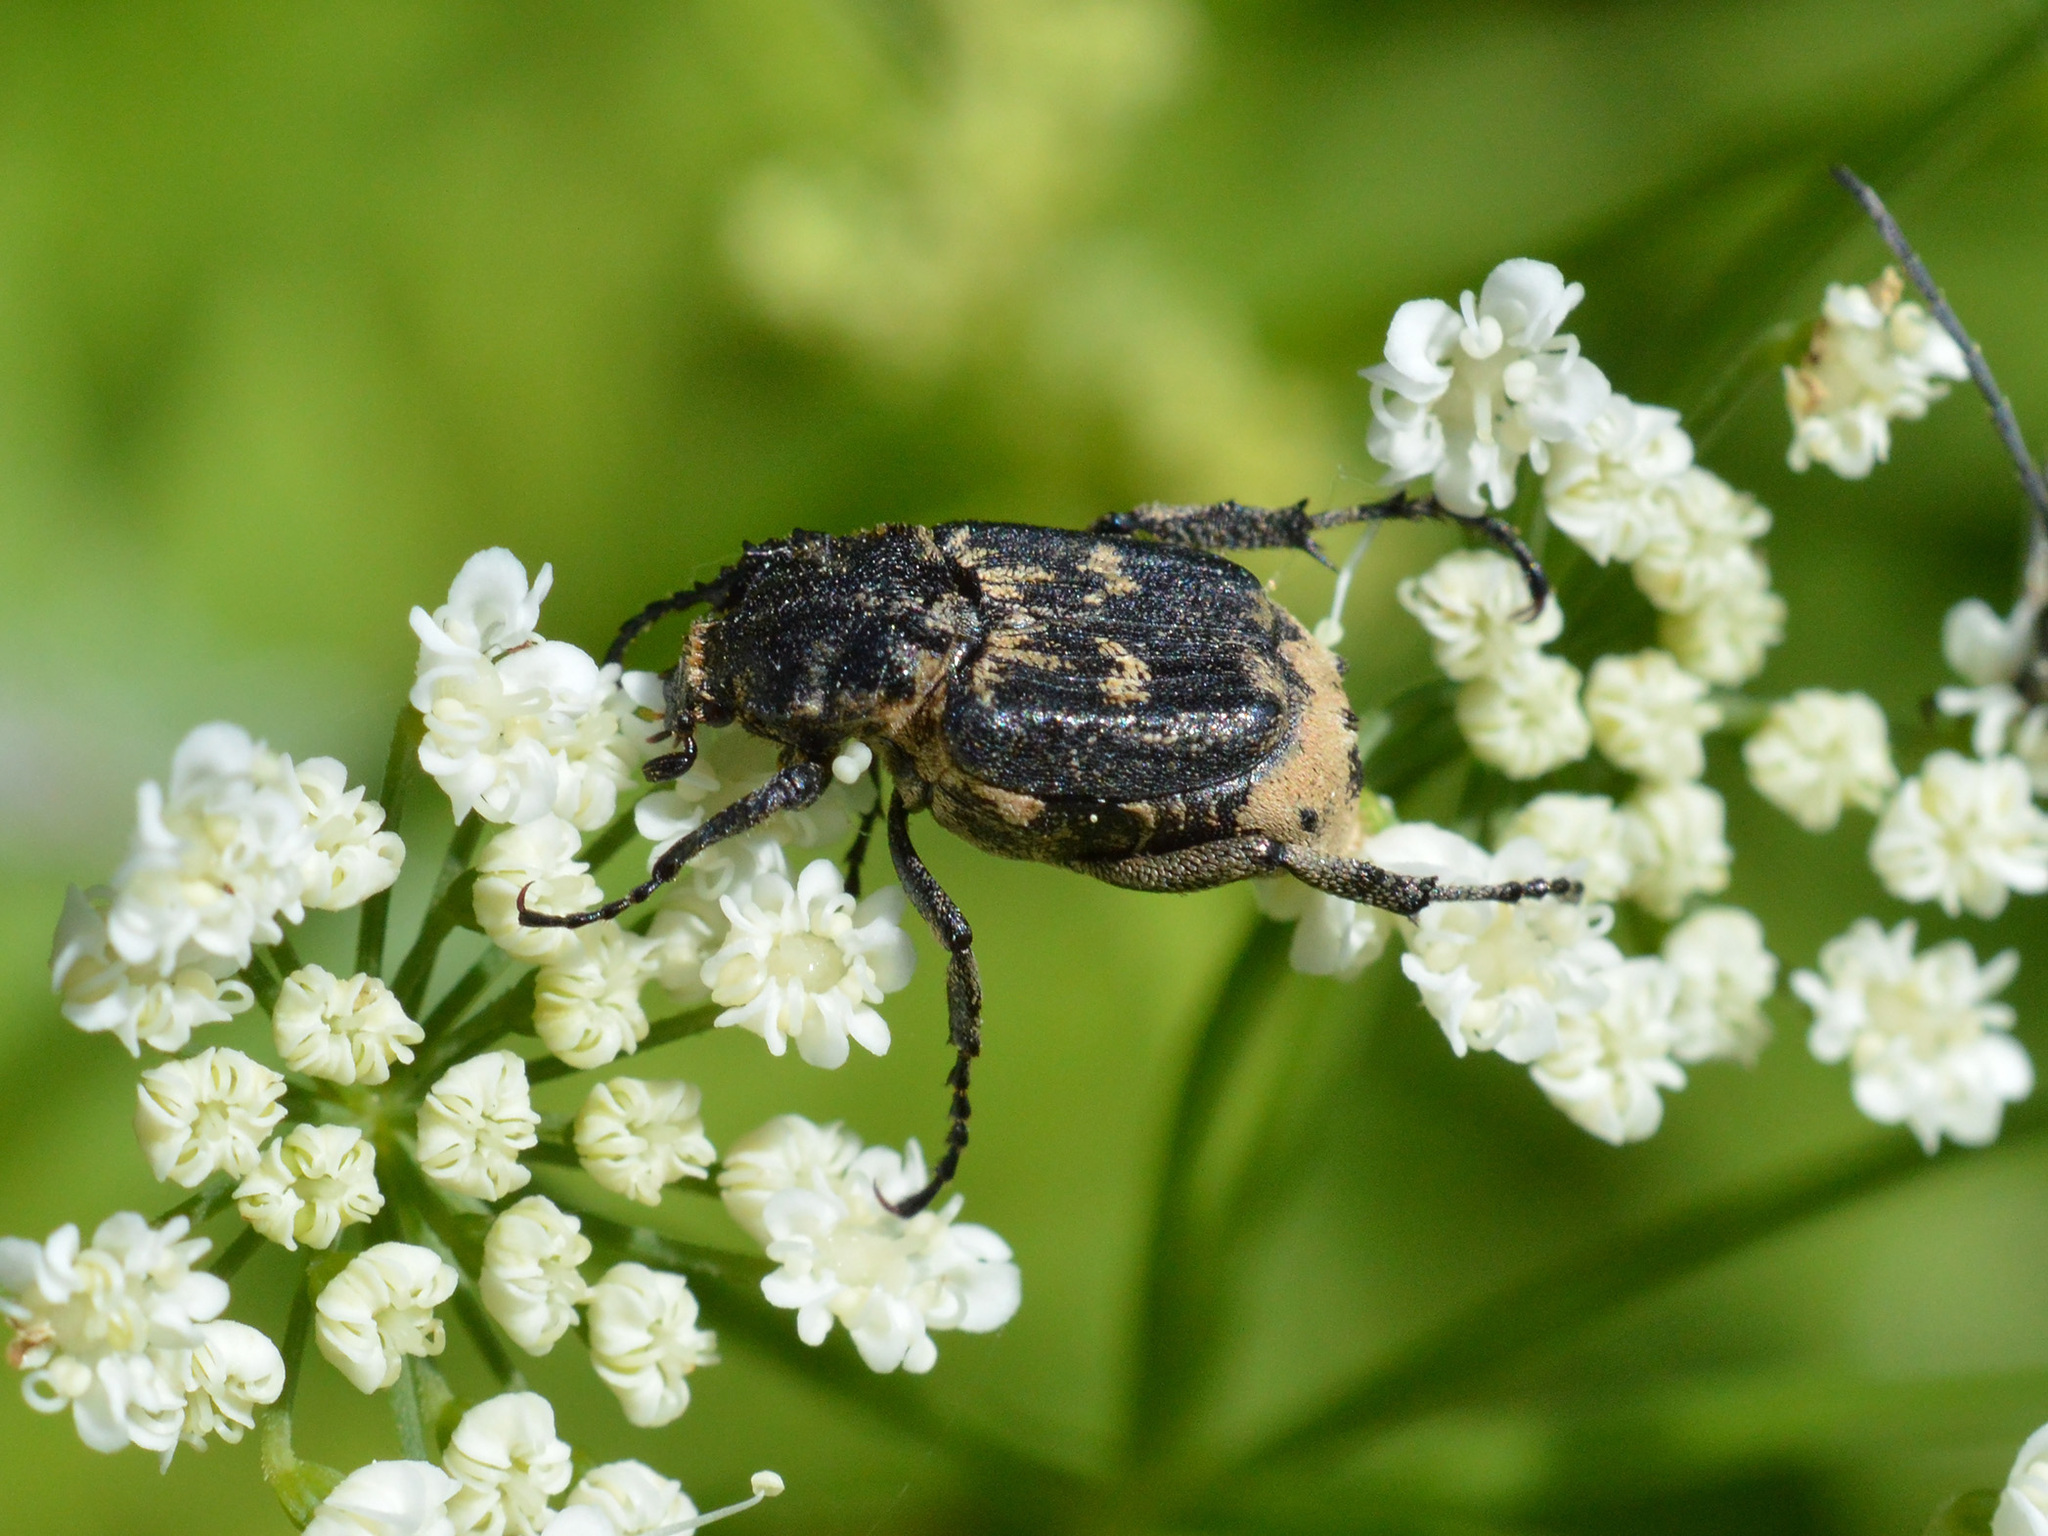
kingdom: Animalia
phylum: Arthropoda
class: Insecta
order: Coleoptera
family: Scarabaeidae
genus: Valgus
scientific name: Valgus hemipterus
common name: Bug flower chafer
